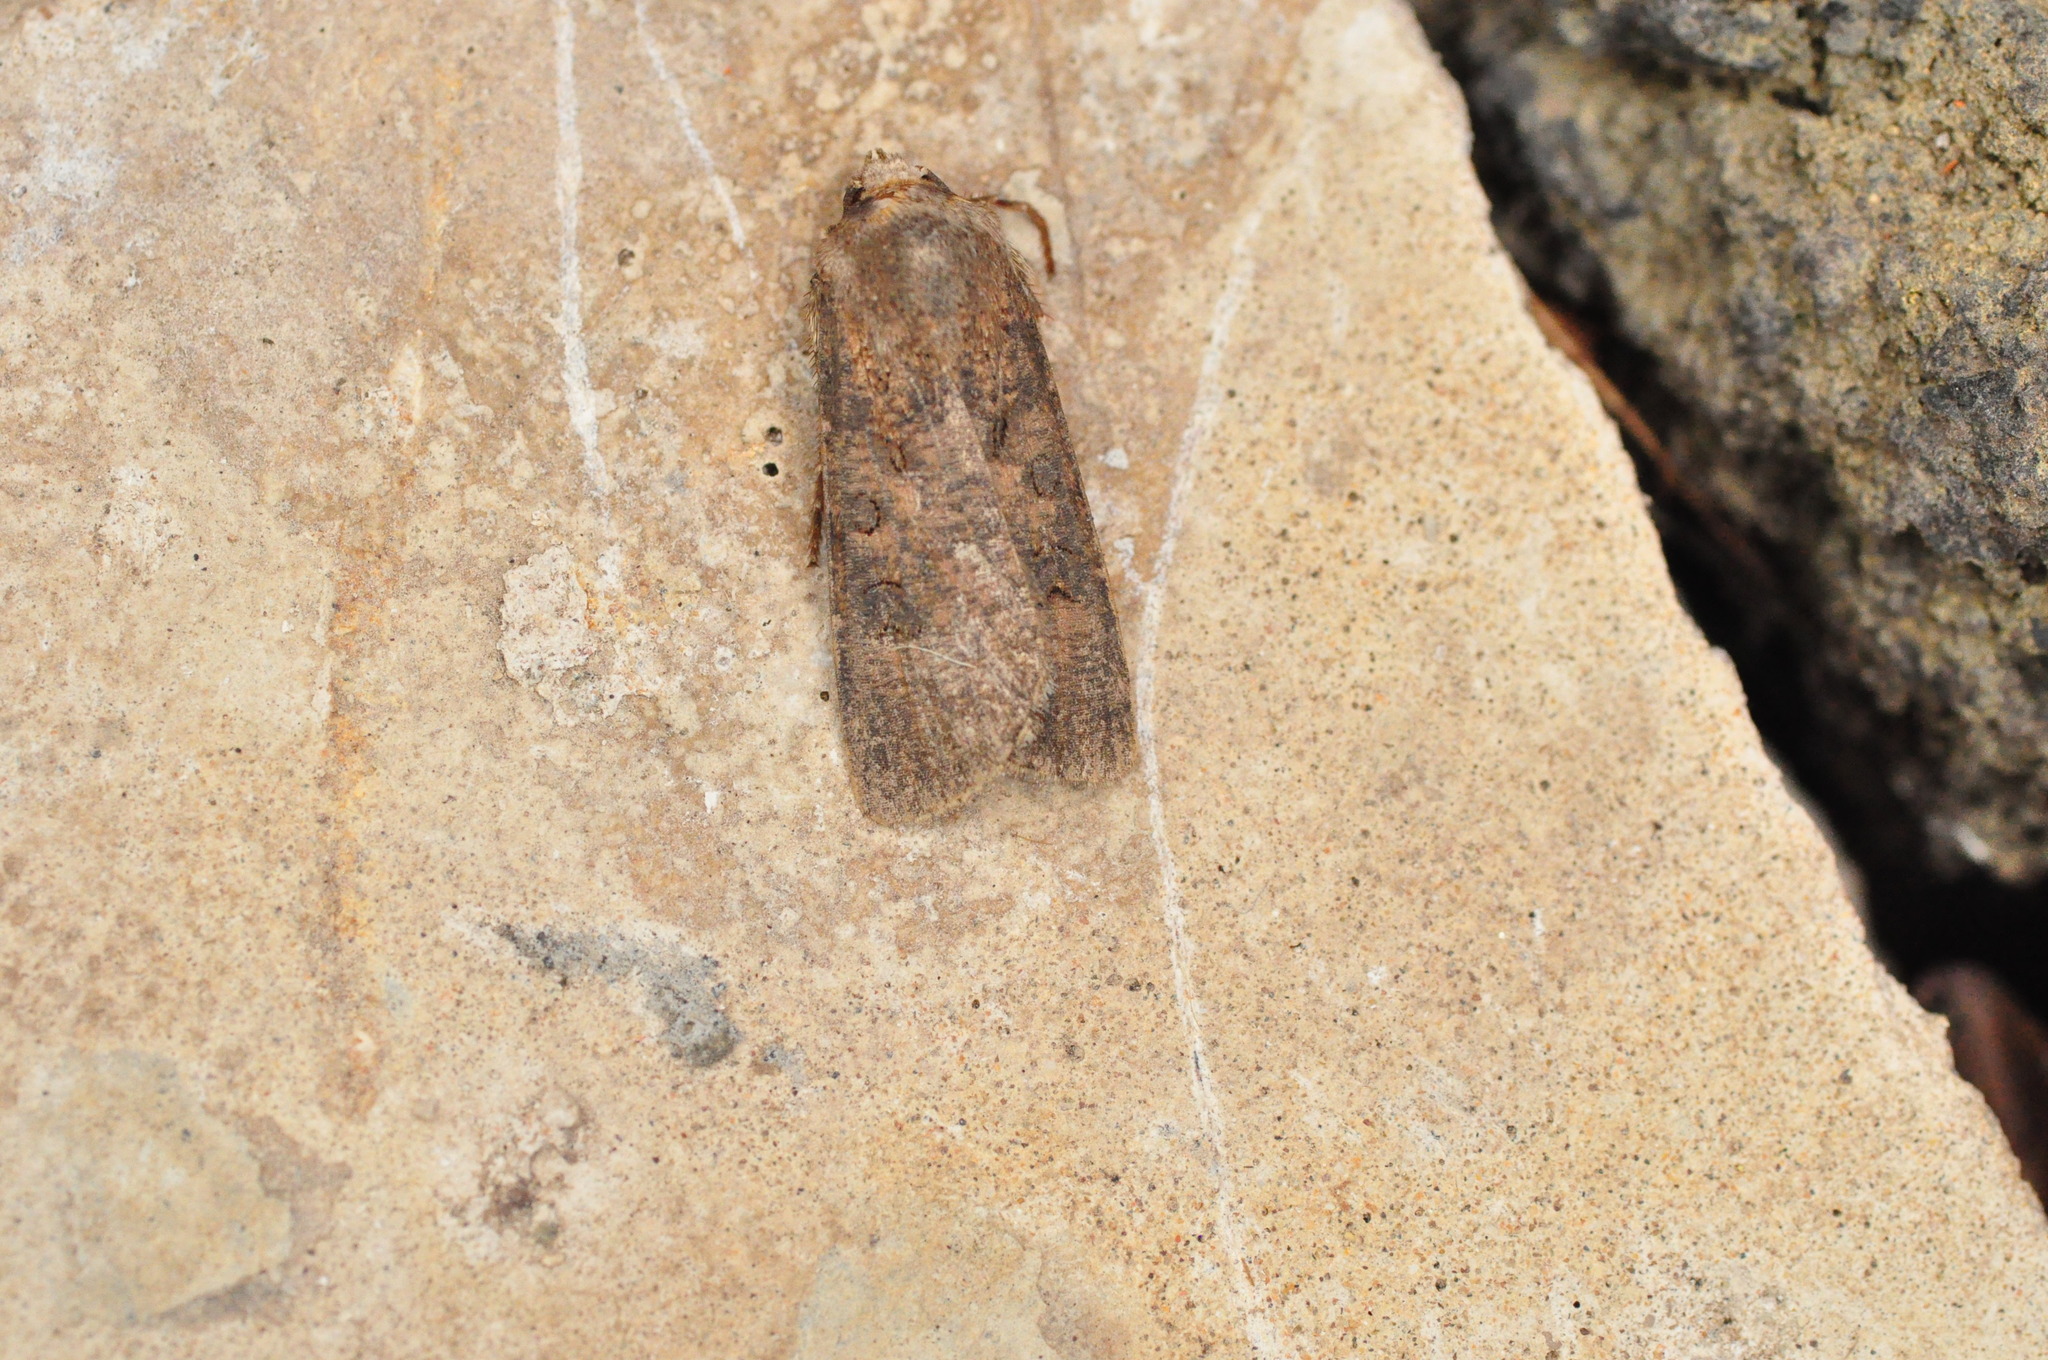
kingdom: Animalia
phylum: Arthropoda
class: Insecta
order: Lepidoptera
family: Noctuidae
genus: Agrotis
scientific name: Agrotis segetum
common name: Turnip moth
